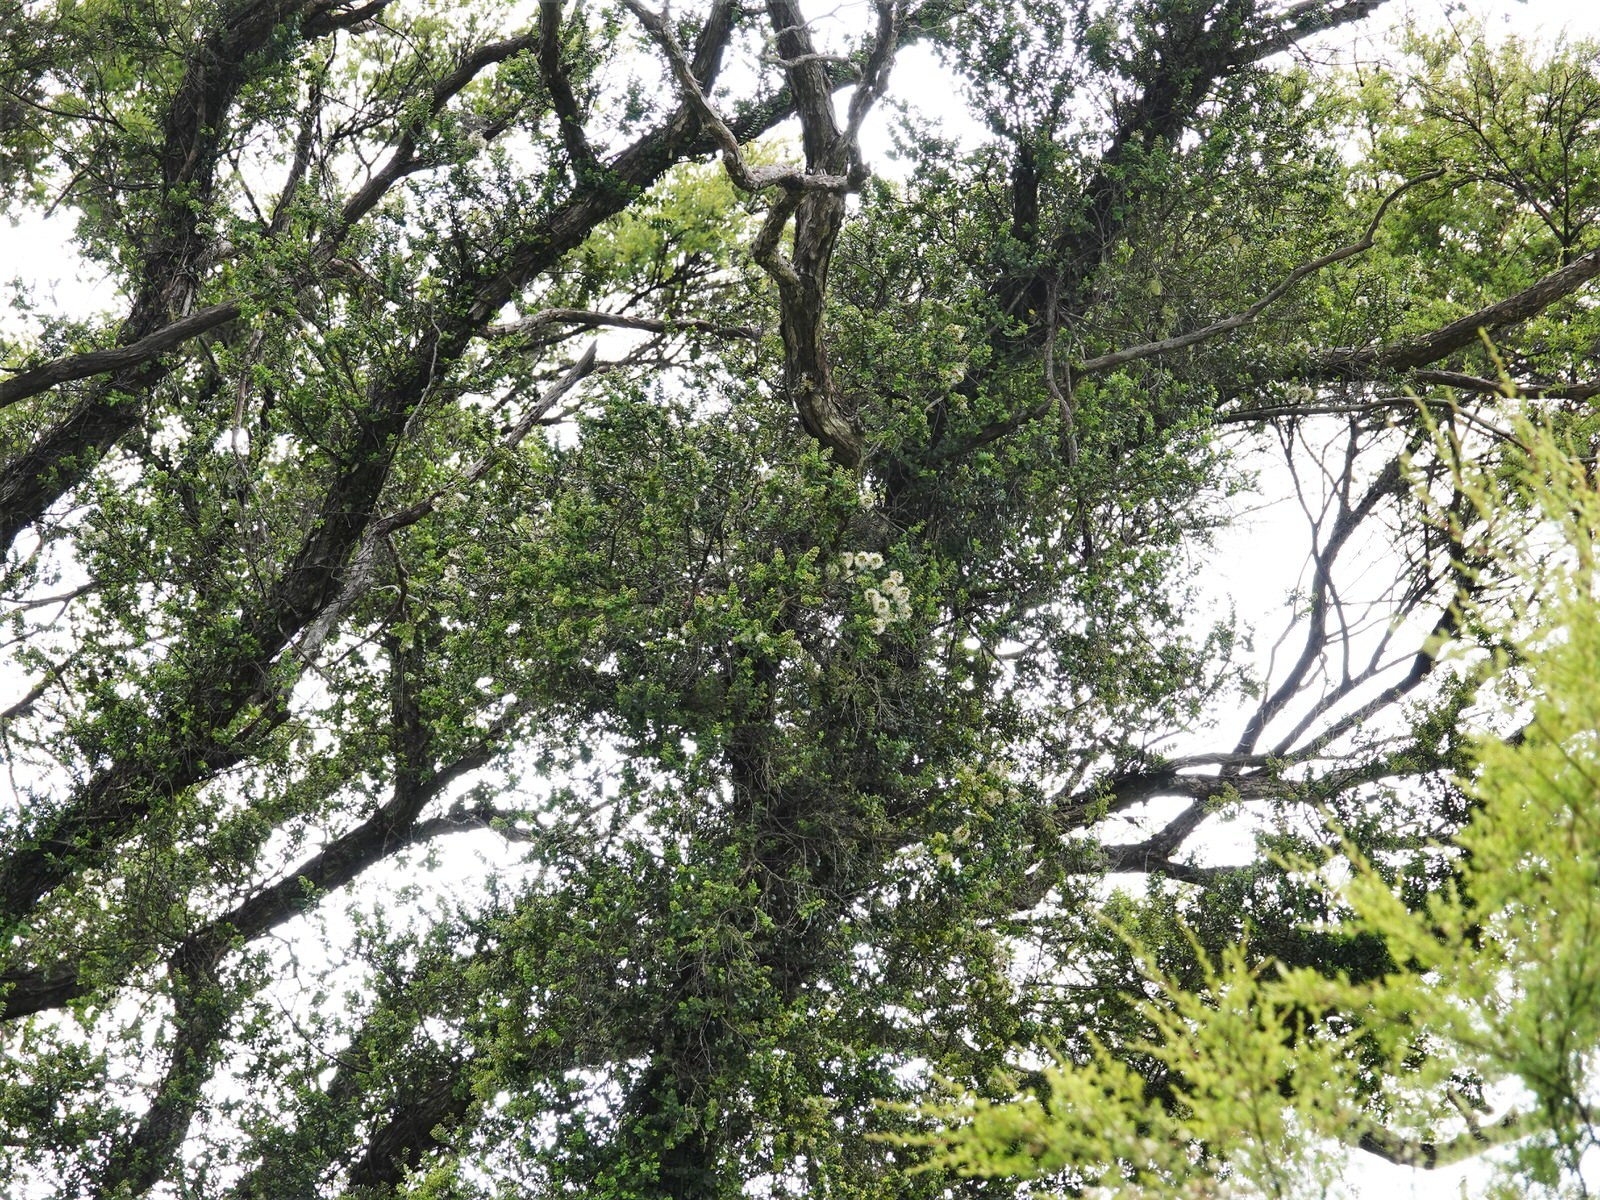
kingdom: Plantae
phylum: Tracheophyta
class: Magnoliopsida
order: Myrtales
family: Myrtaceae
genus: Metrosideros
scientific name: Metrosideros perforata
